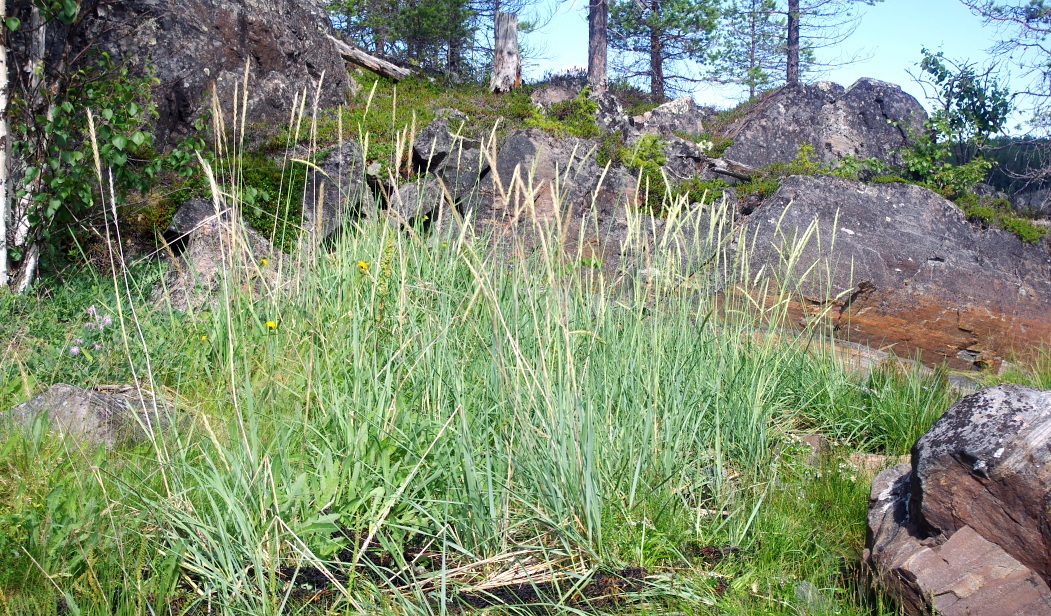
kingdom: Plantae
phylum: Tracheophyta
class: Liliopsida
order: Poales
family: Poaceae
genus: Leymus
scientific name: Leymus arenarius
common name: Lyme-grass
